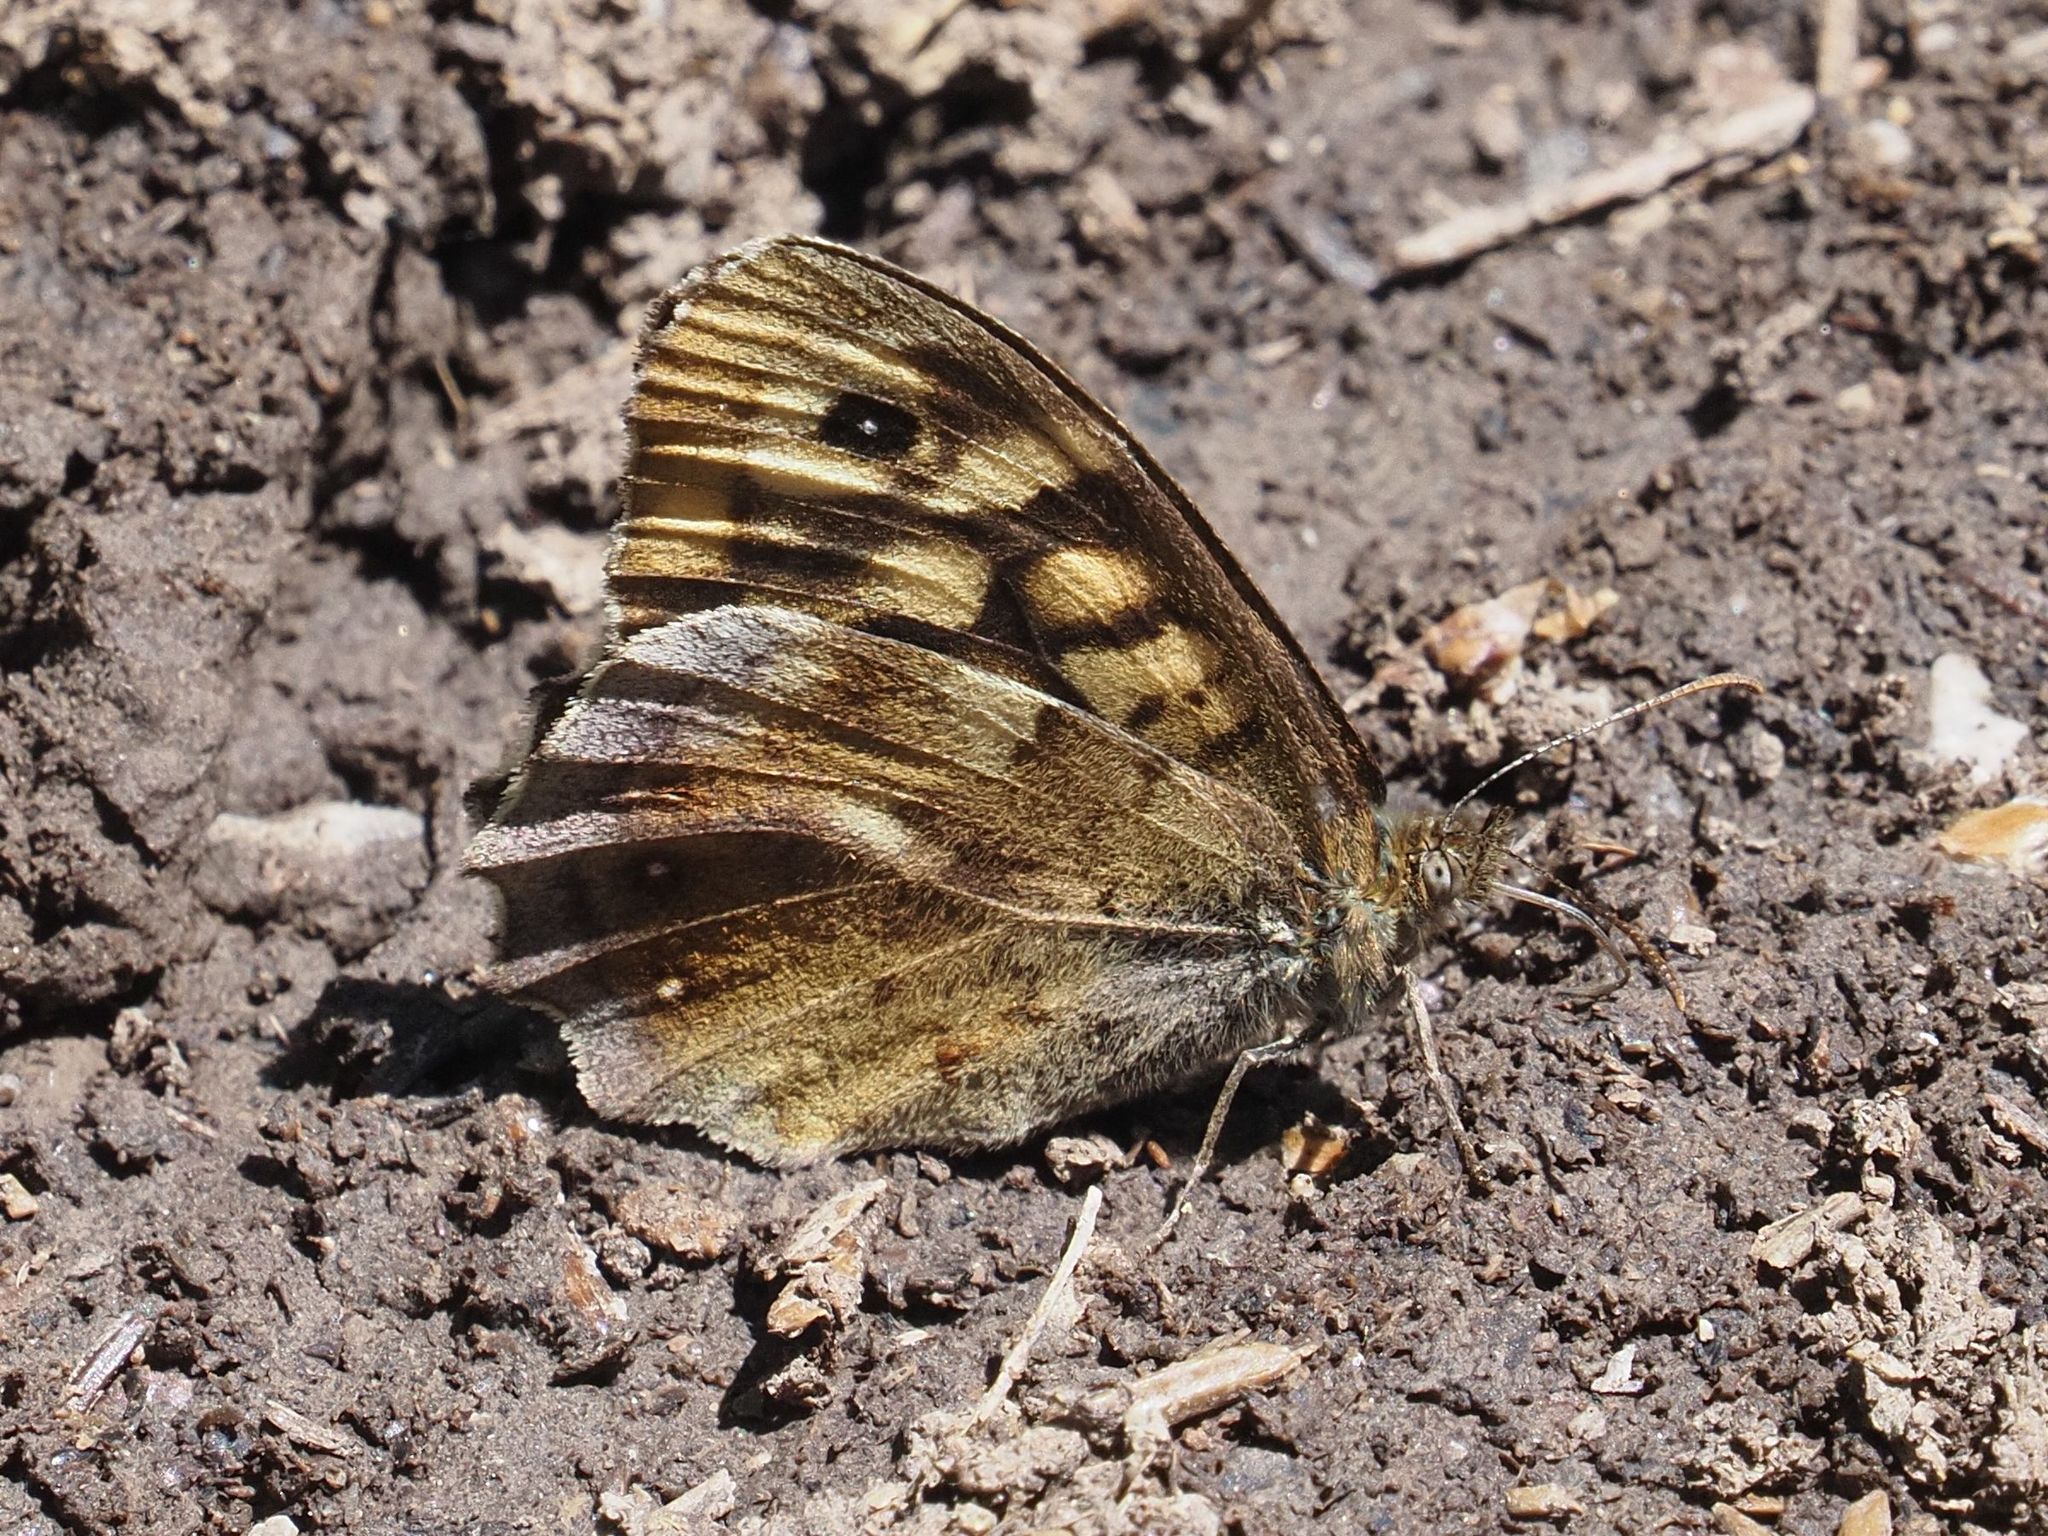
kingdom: Animalia
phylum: Arthropoda
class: Insecta
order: Lepidoptera
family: Nymphalidae
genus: Pararge
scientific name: Pararge aegeria
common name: Speckled wood
